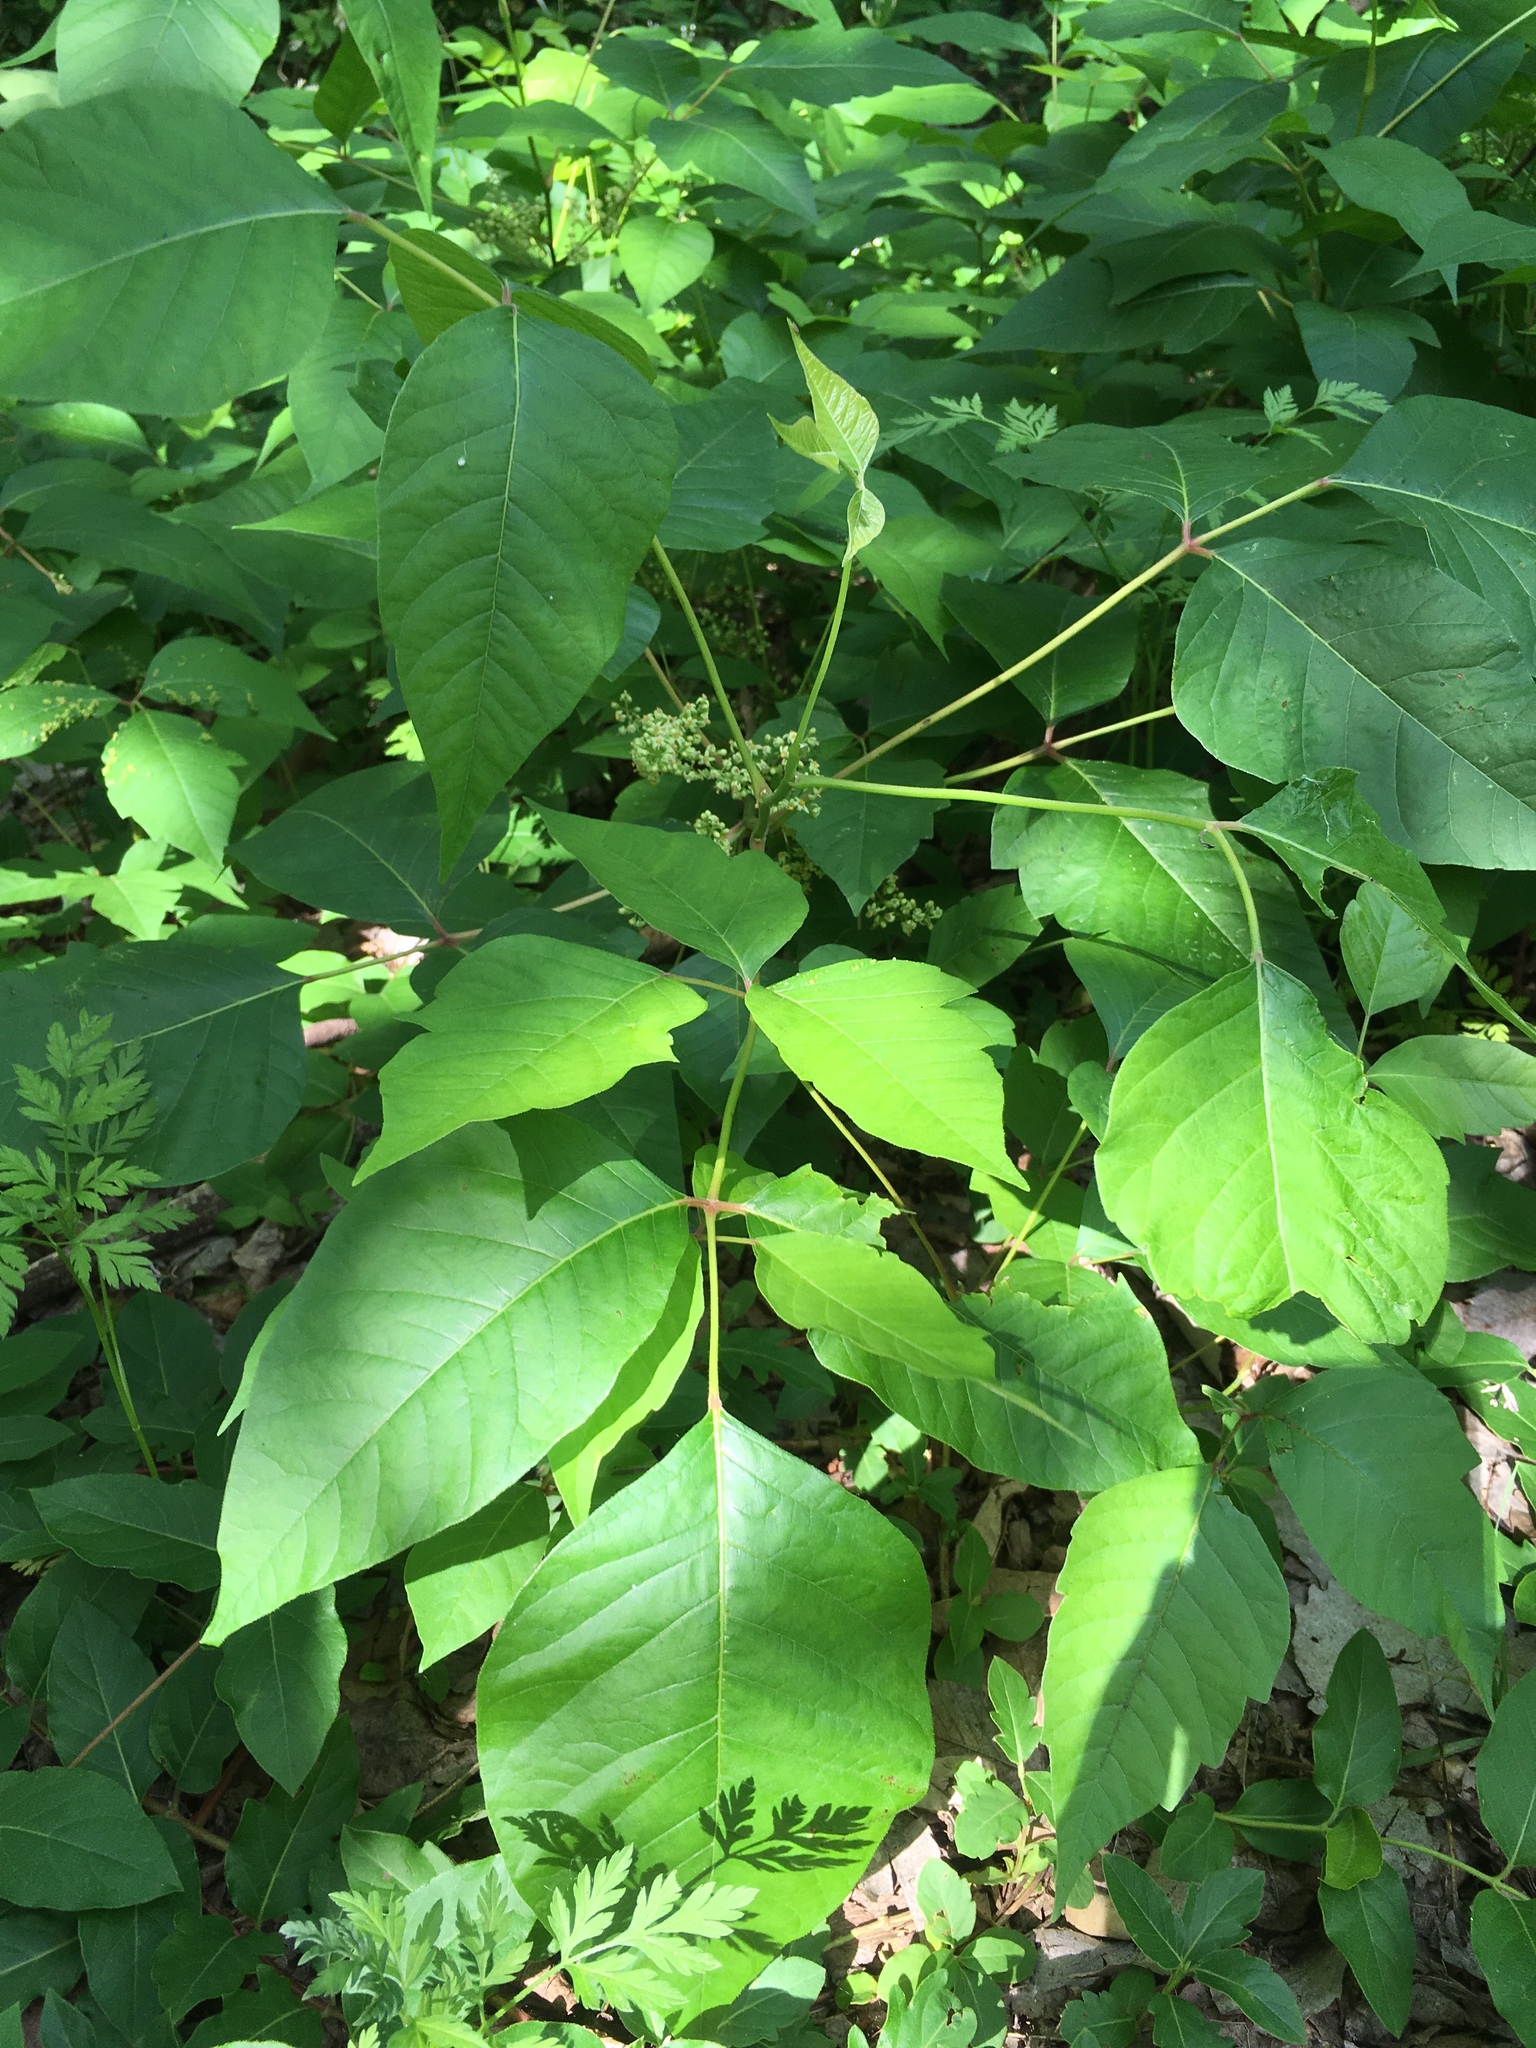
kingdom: Plantae
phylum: Tracheophyta
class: Magnoliopsida
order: Sapindales
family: Anacardiaceae
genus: Toxicodendron
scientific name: Toxicodendron radicans
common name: Poison ivy
